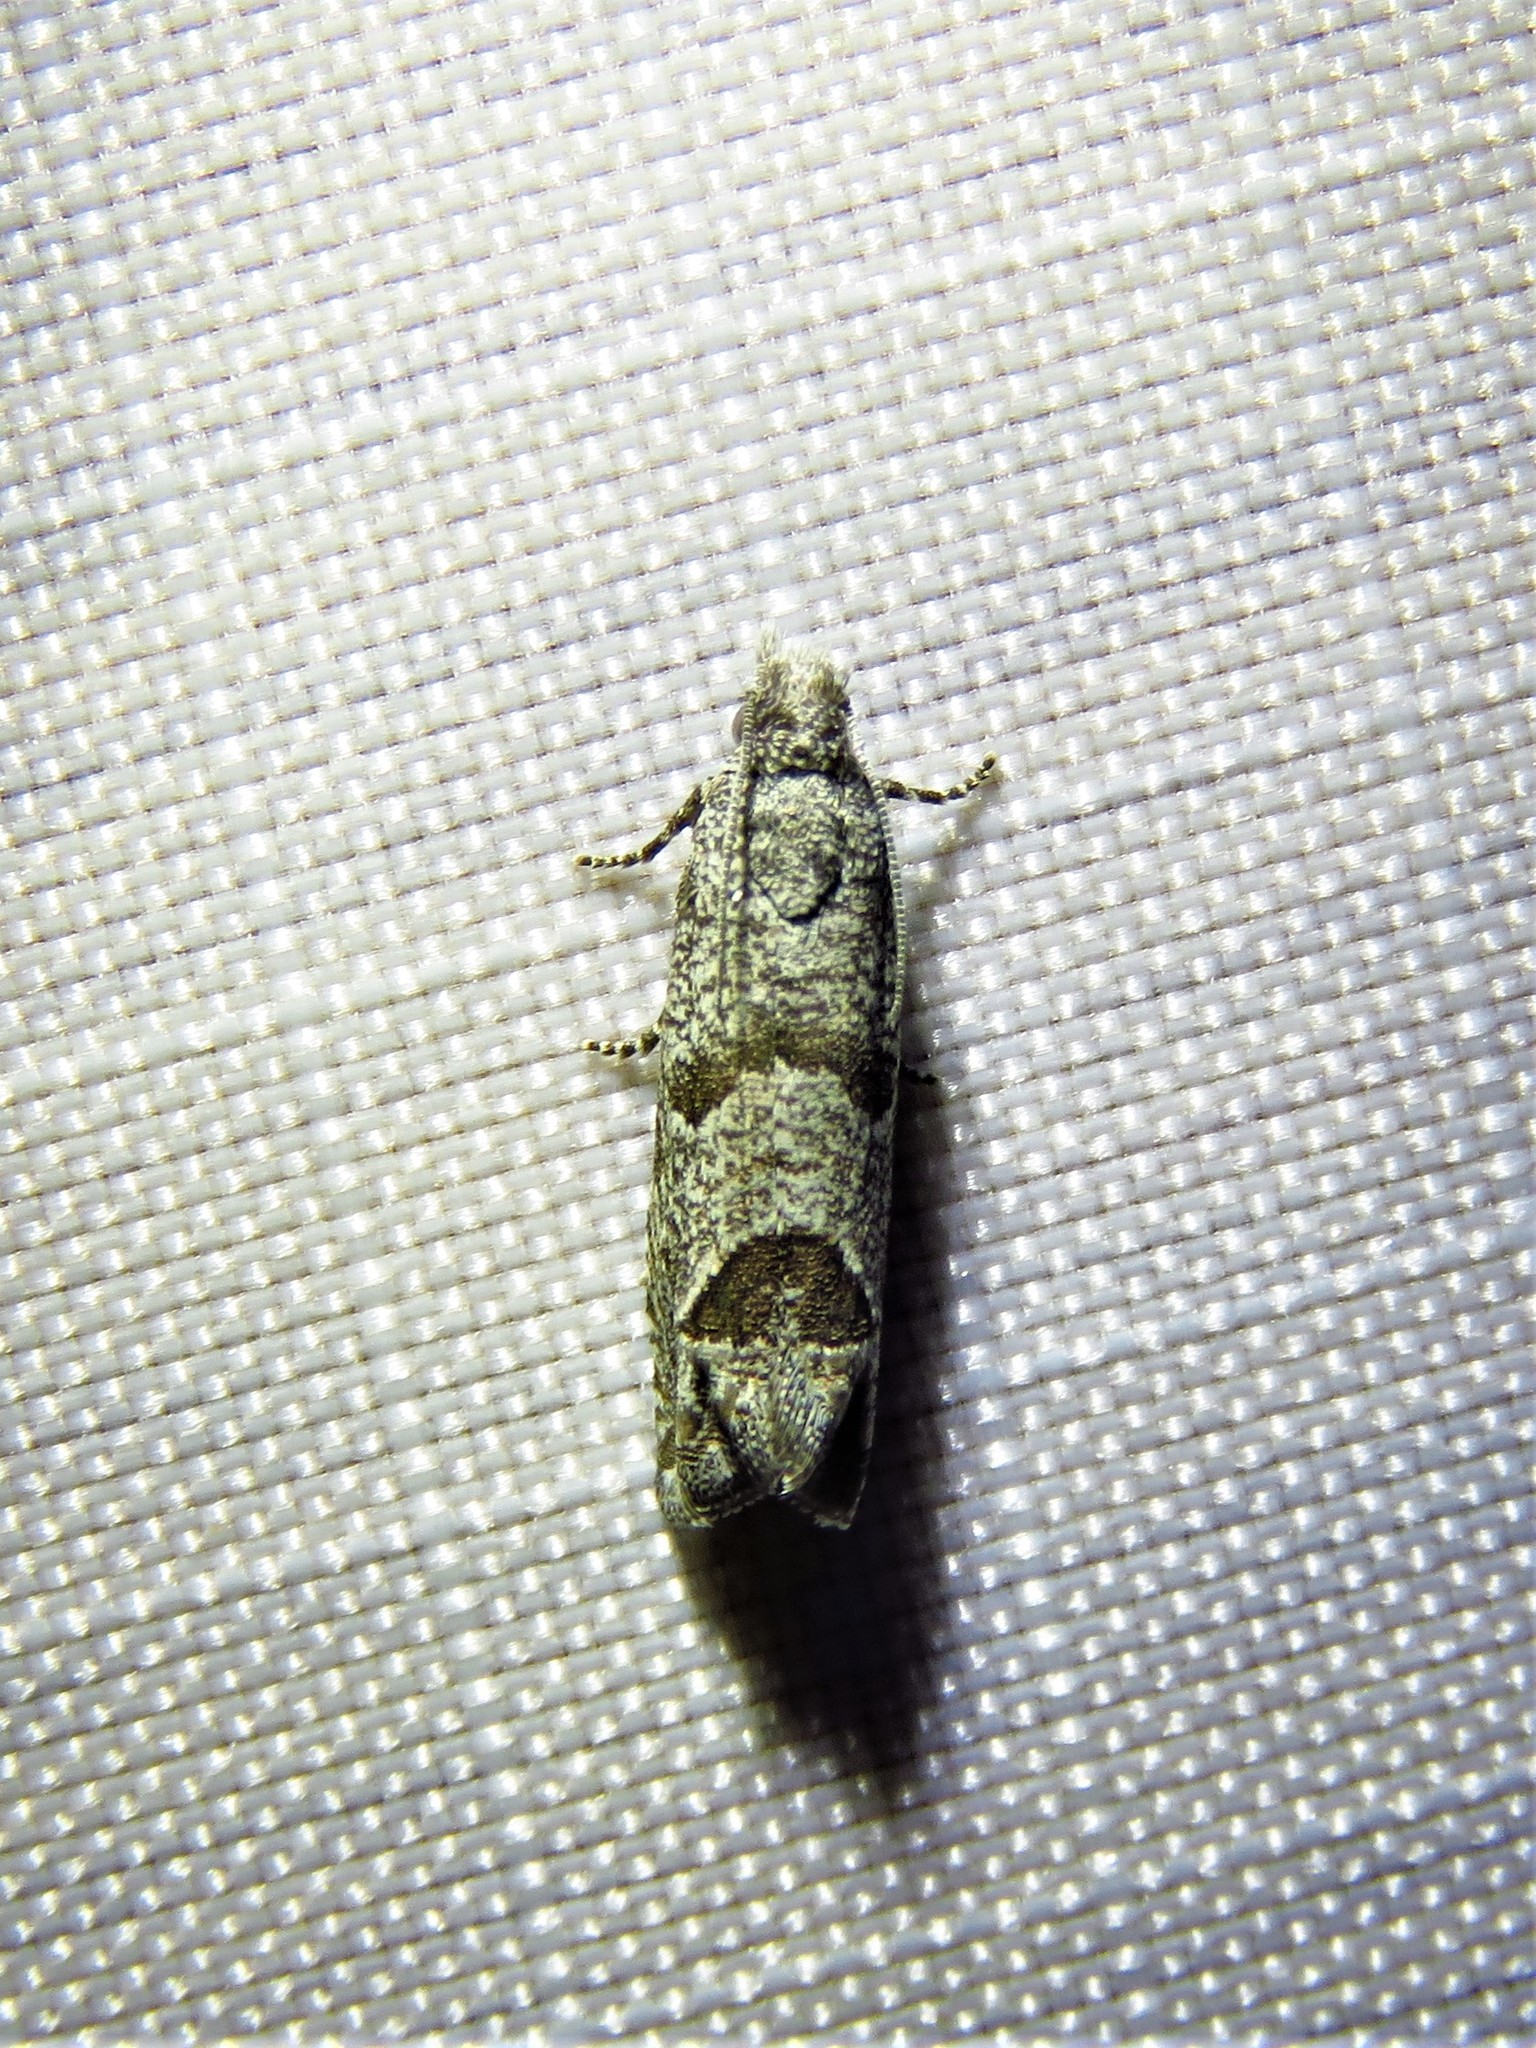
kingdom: Animalia
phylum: Arthropoda
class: Insecta
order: Lepidoptera
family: Tortricidae
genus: Suleima
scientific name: Suleima helianthana
